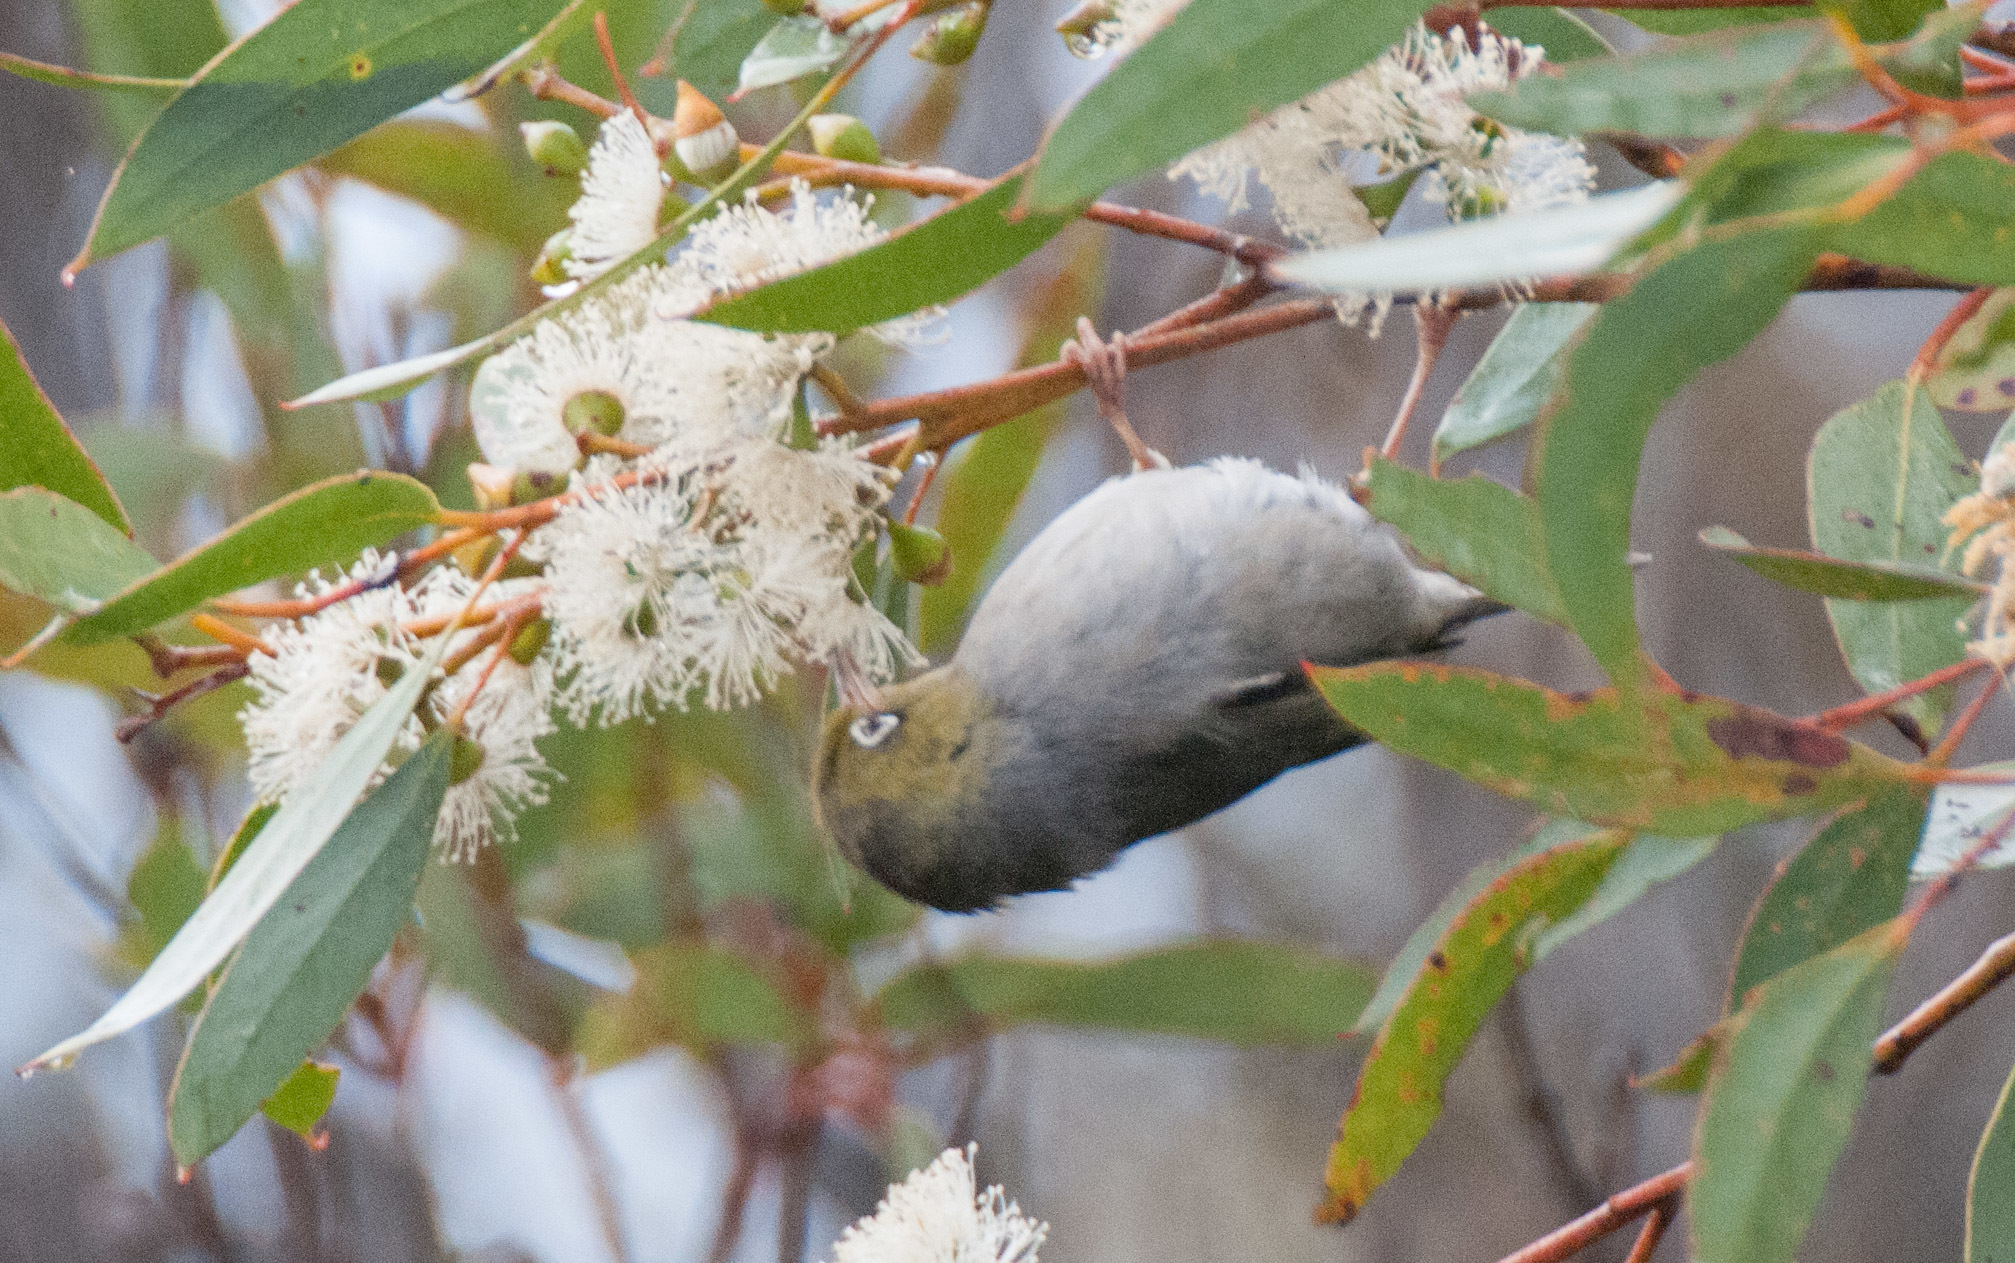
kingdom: Animalia
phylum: Chordata
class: Aves
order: Passeriformes
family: Zosteropidae
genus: Zosterops
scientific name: Zosterops lateralis
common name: Silvereye
